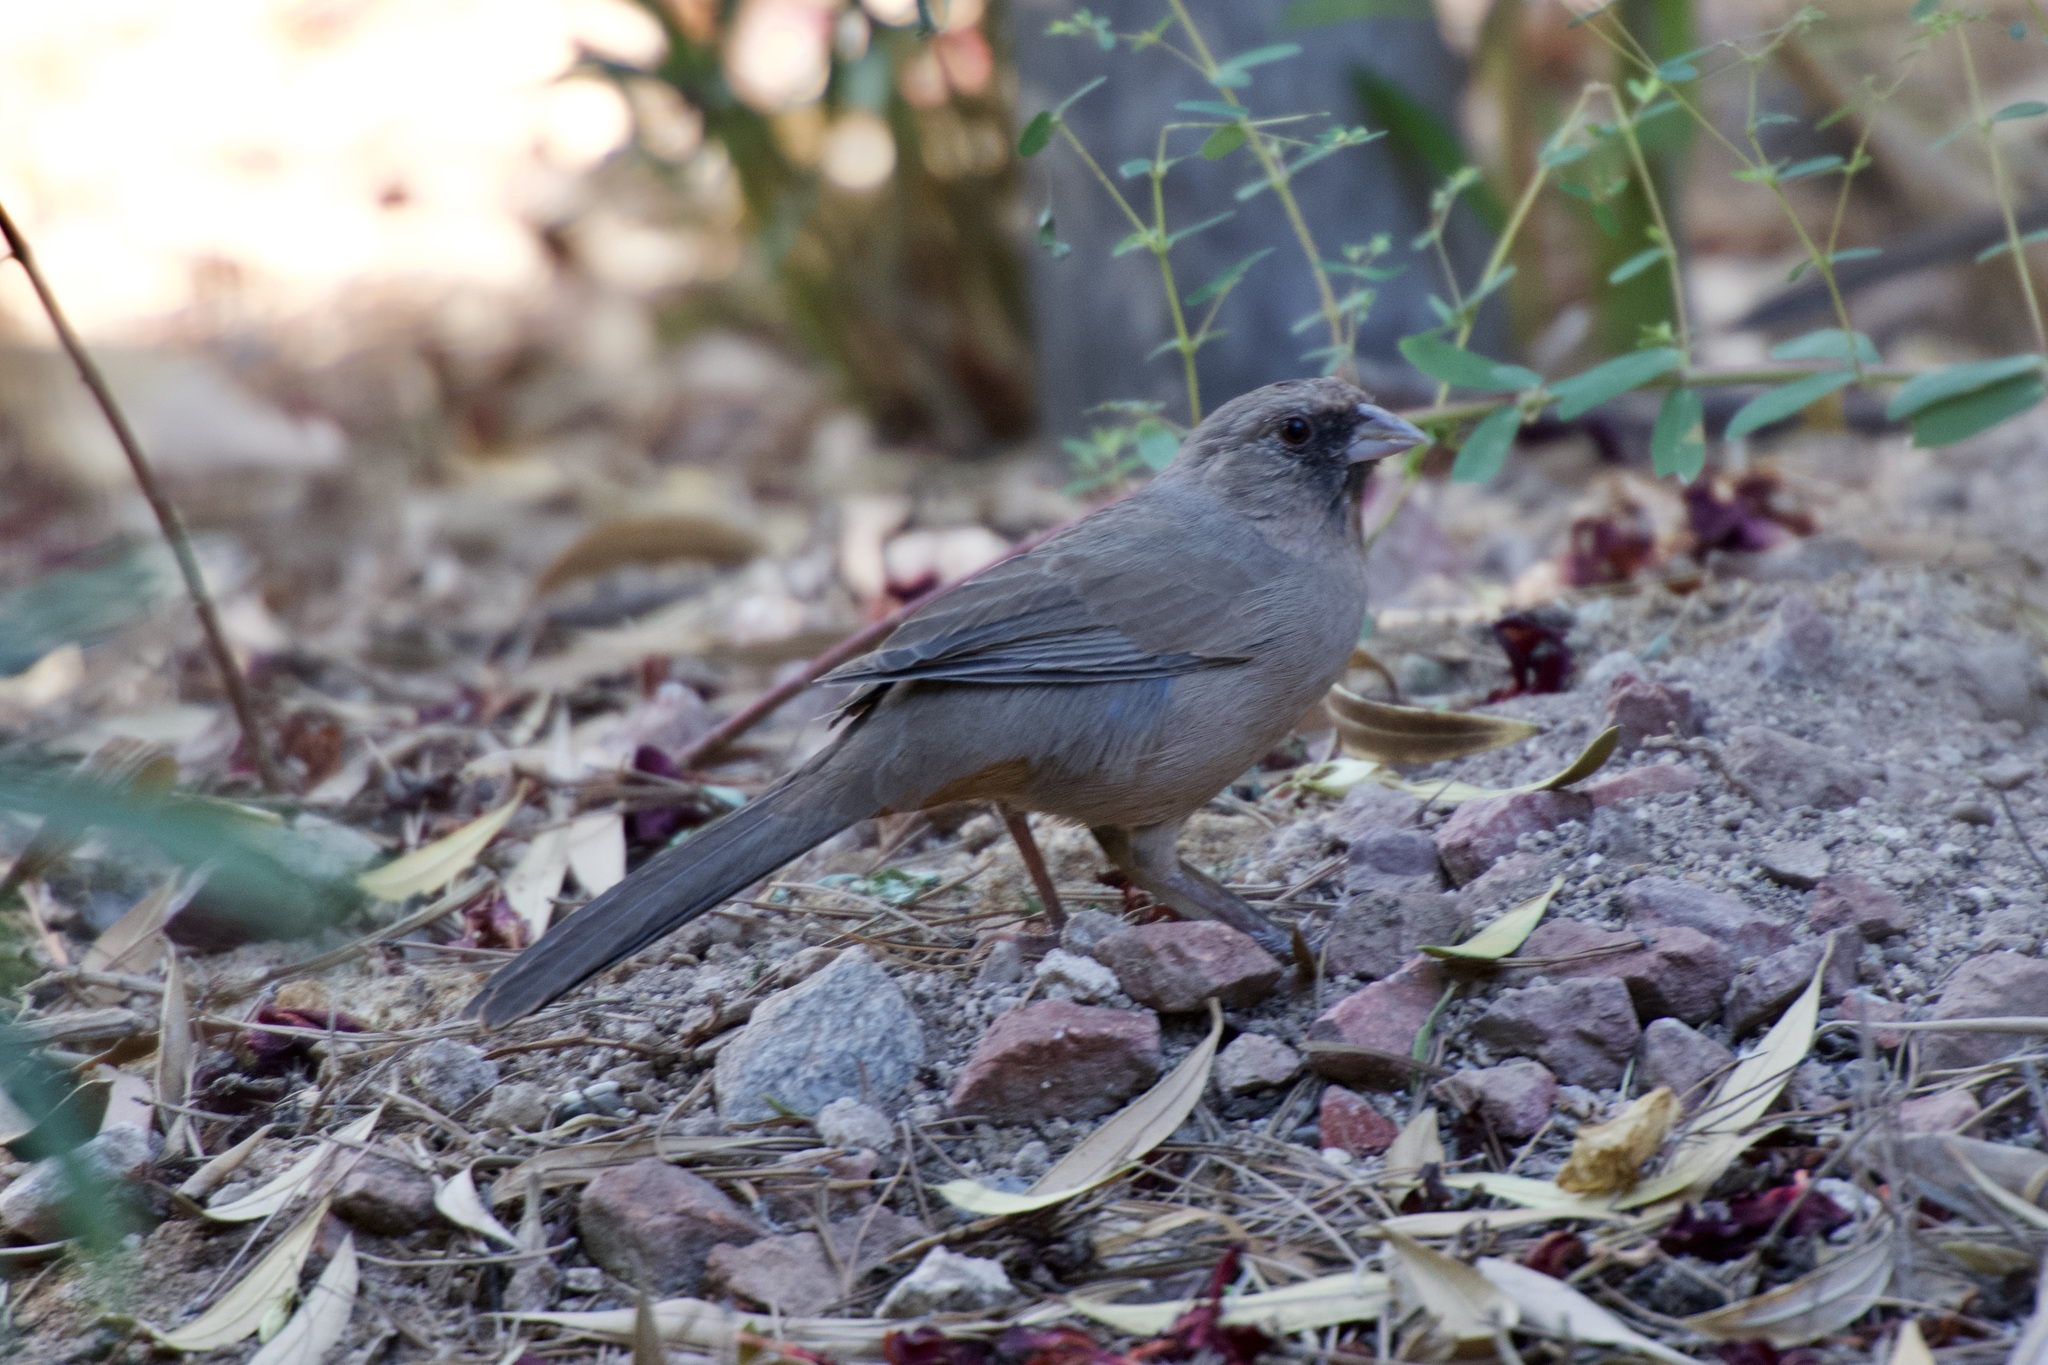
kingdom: Animalia
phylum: Chordata
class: Aves
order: Passeriformes
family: Passerellidae
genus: Melozone
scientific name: Melozone aberti
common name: Abert's towhee
